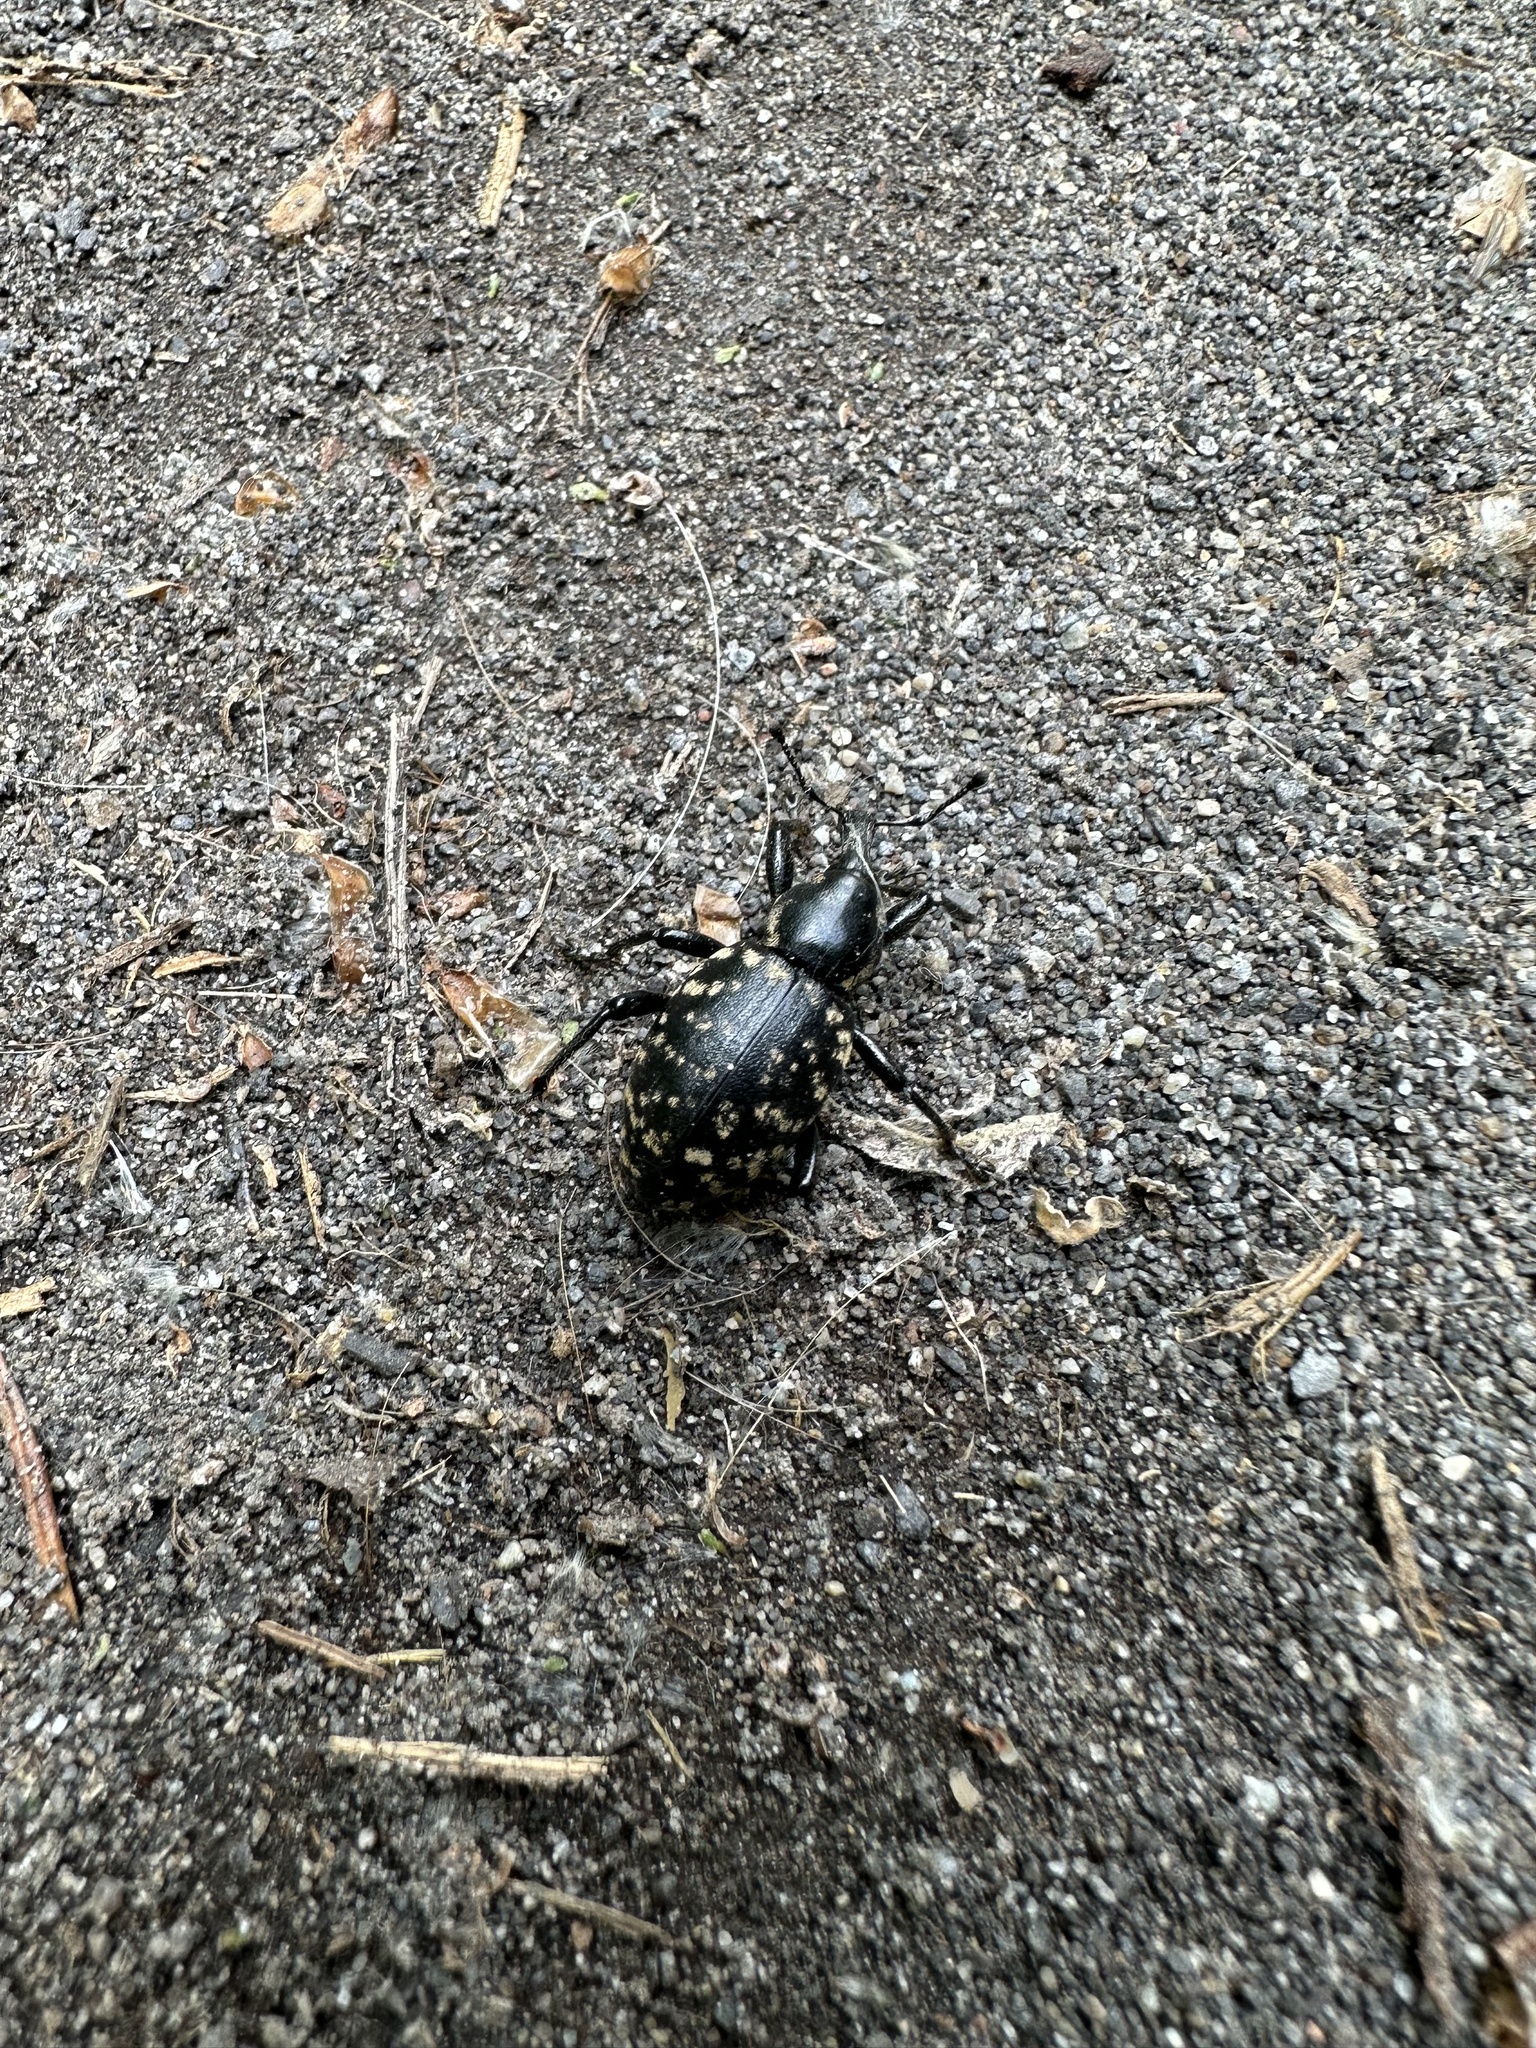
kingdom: Animalia
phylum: Arthropoda
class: Insecta
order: Coleoptera
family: Curculionidae
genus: Liparus
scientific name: Liparus glabrirostris
